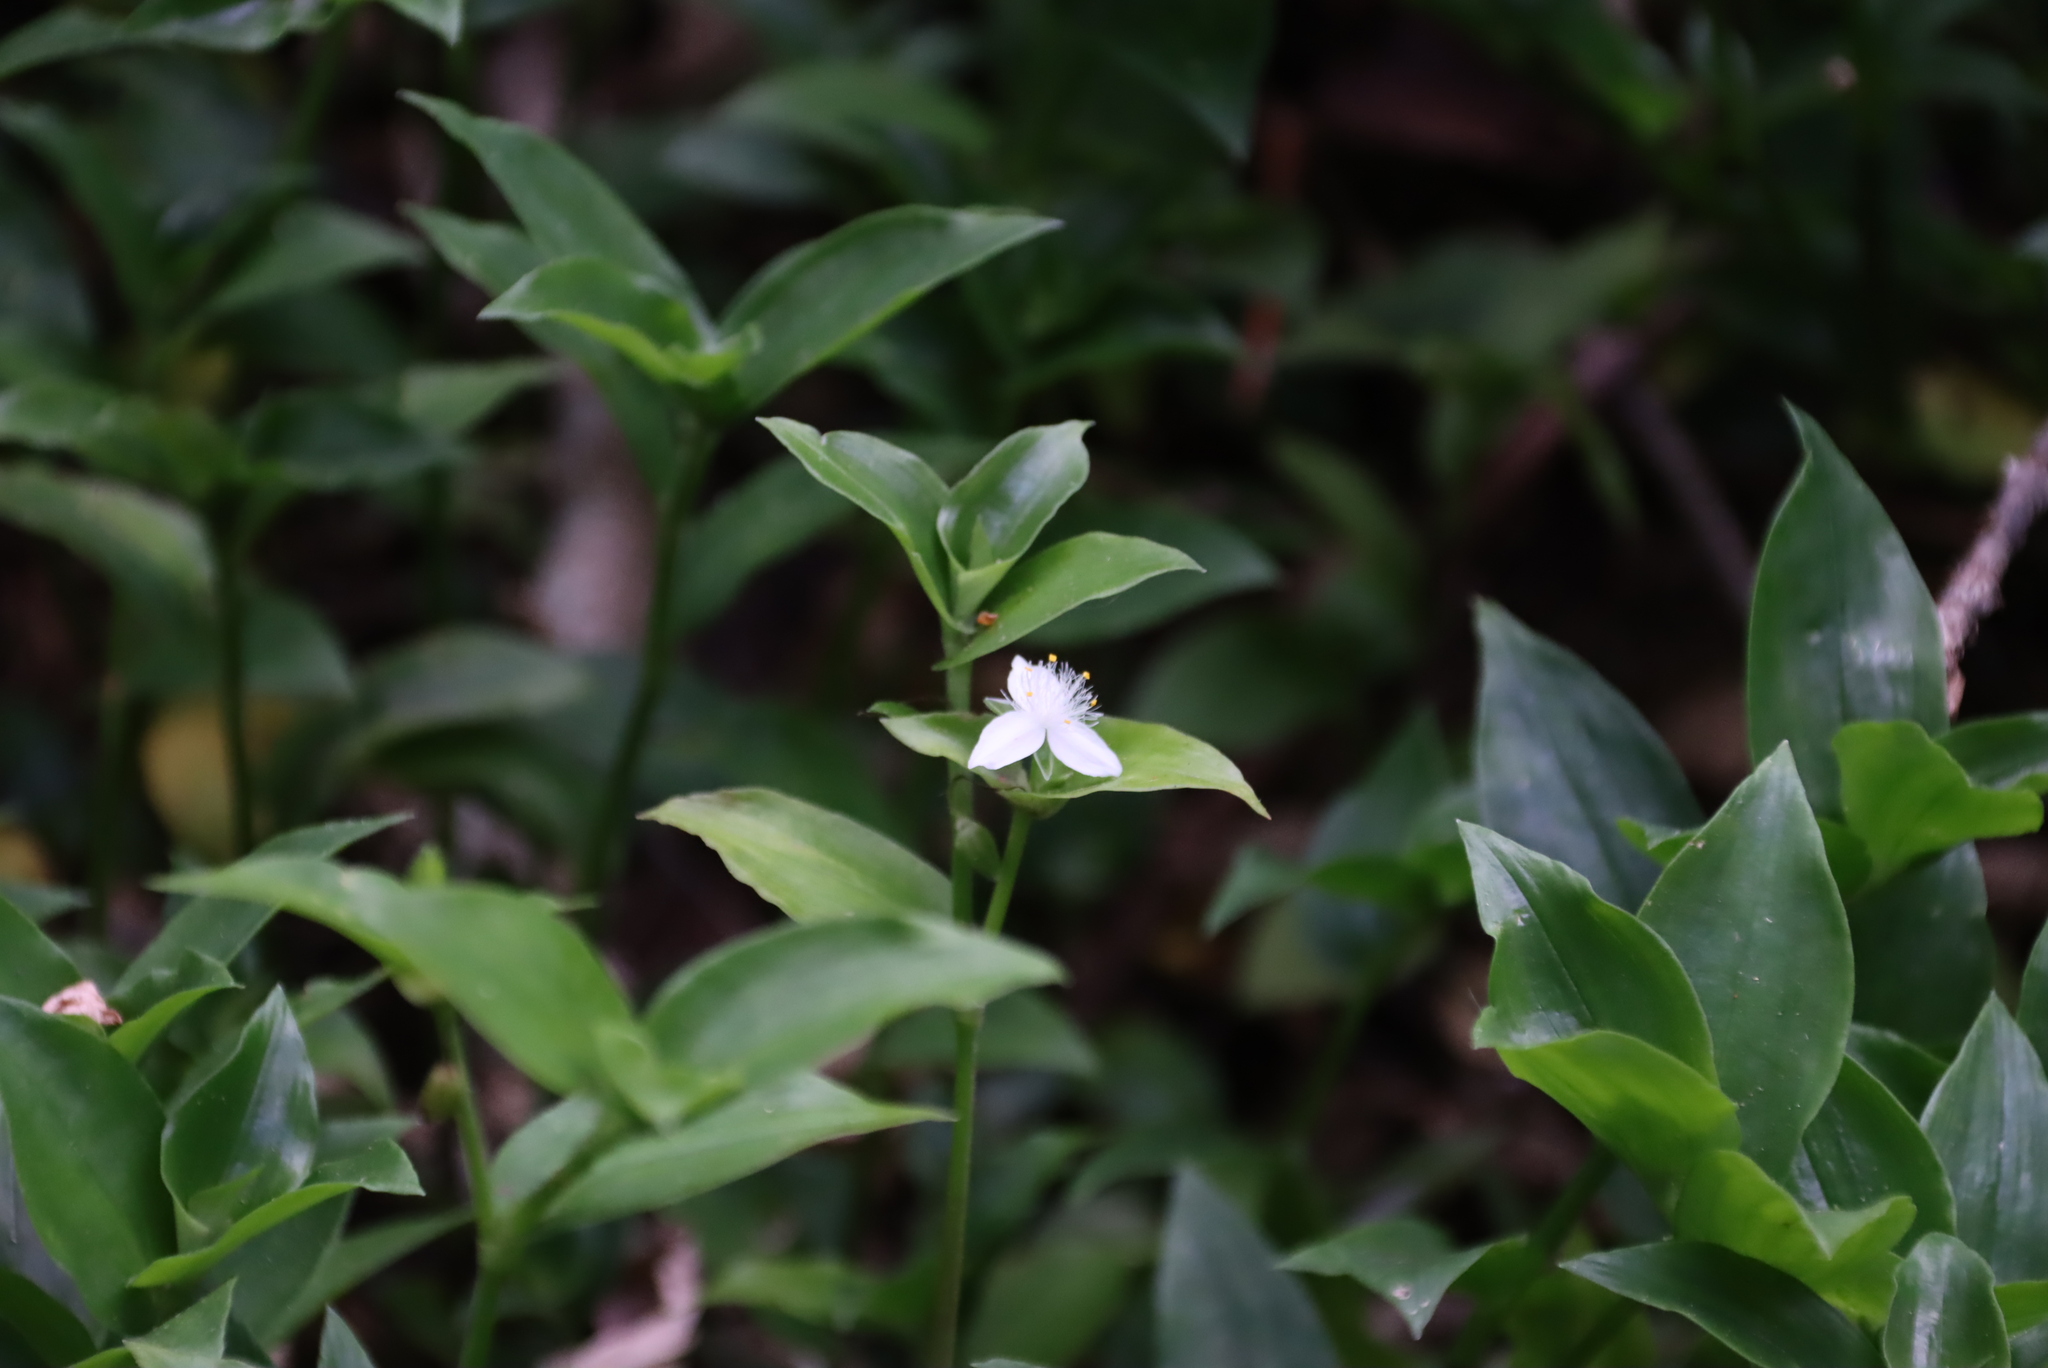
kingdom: Plantae
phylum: Tracheophyta
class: Liliopsida
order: Commelinales
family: Commelinaceae
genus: Tradescantia
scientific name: Tradescantia fluminensis
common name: Wandering-jew
